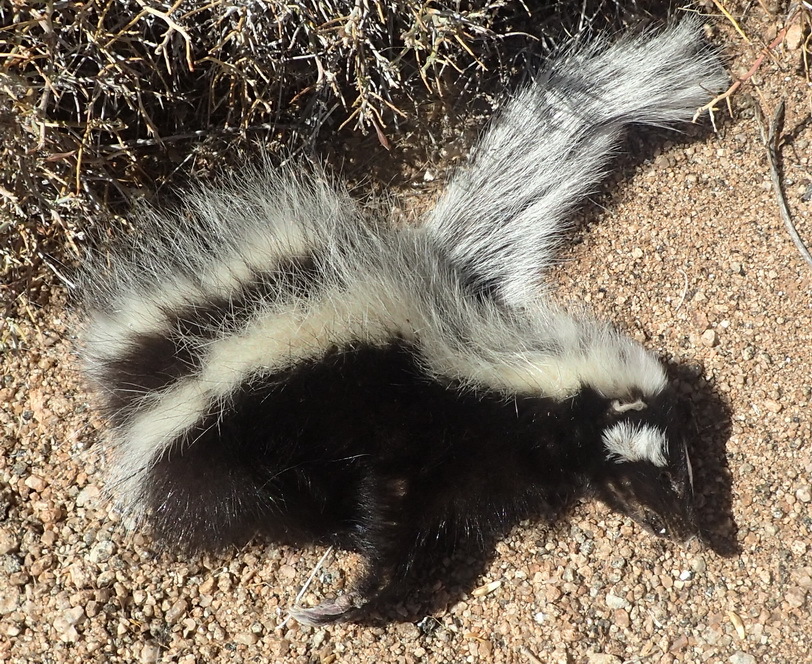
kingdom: Animalia
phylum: Chordata
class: Mammalia
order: Carnivora
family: Mustelidae
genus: Ictonyx
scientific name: Ictonyx striatus
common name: Striped polecat
